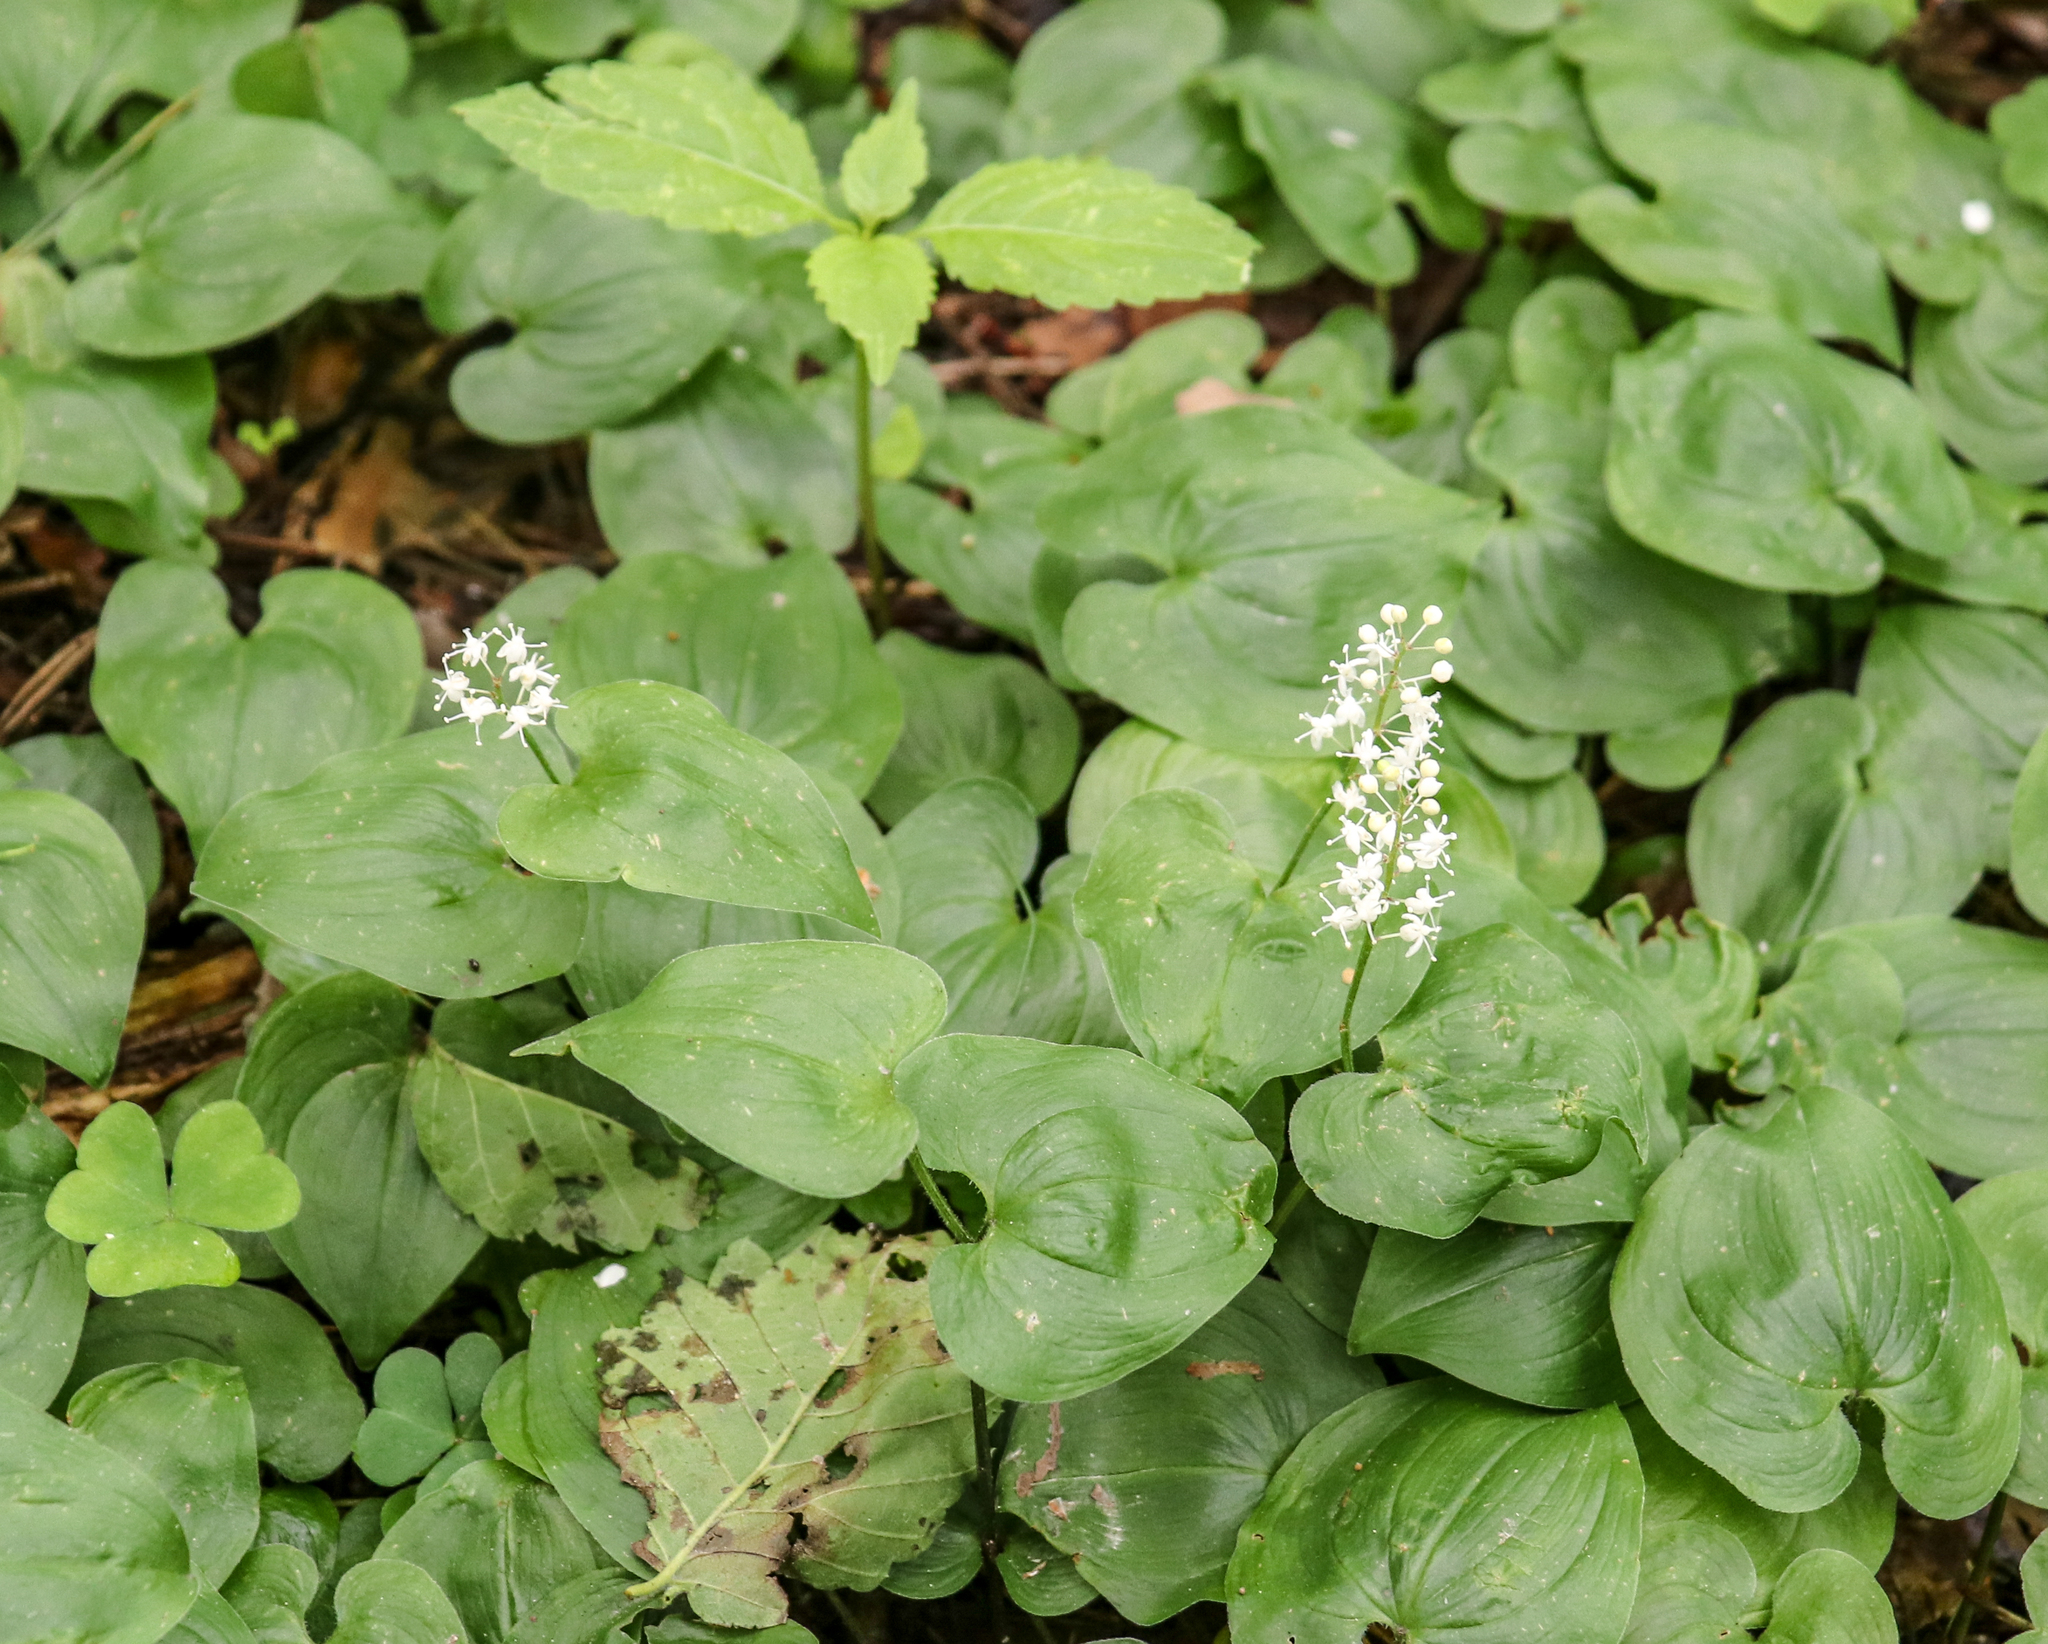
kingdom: Plantae
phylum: Tracheophyta
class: Liliopsida
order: Asparagales
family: Asparagaceae
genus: Maianthemum
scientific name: Maianthemum bifolium
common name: May lily
